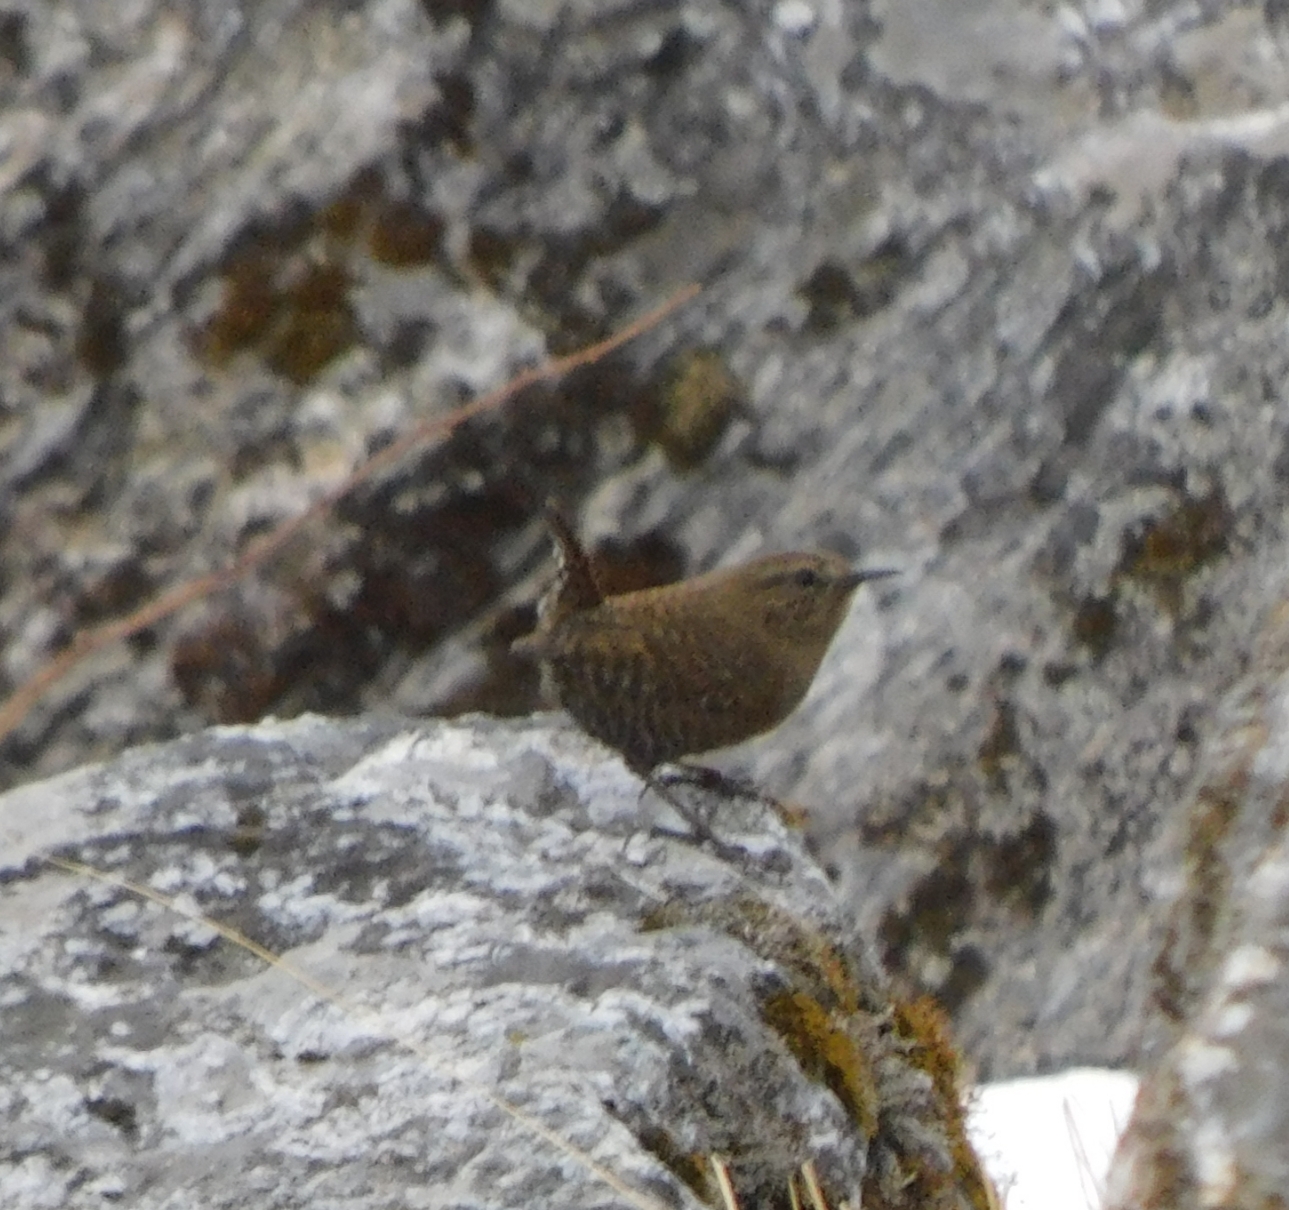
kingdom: Animalia
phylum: Chordata
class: Aves
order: Passeriformes
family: Troglodytidae
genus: Troglodytes
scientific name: Troglodytes troglodytes
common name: Eurasian wren
